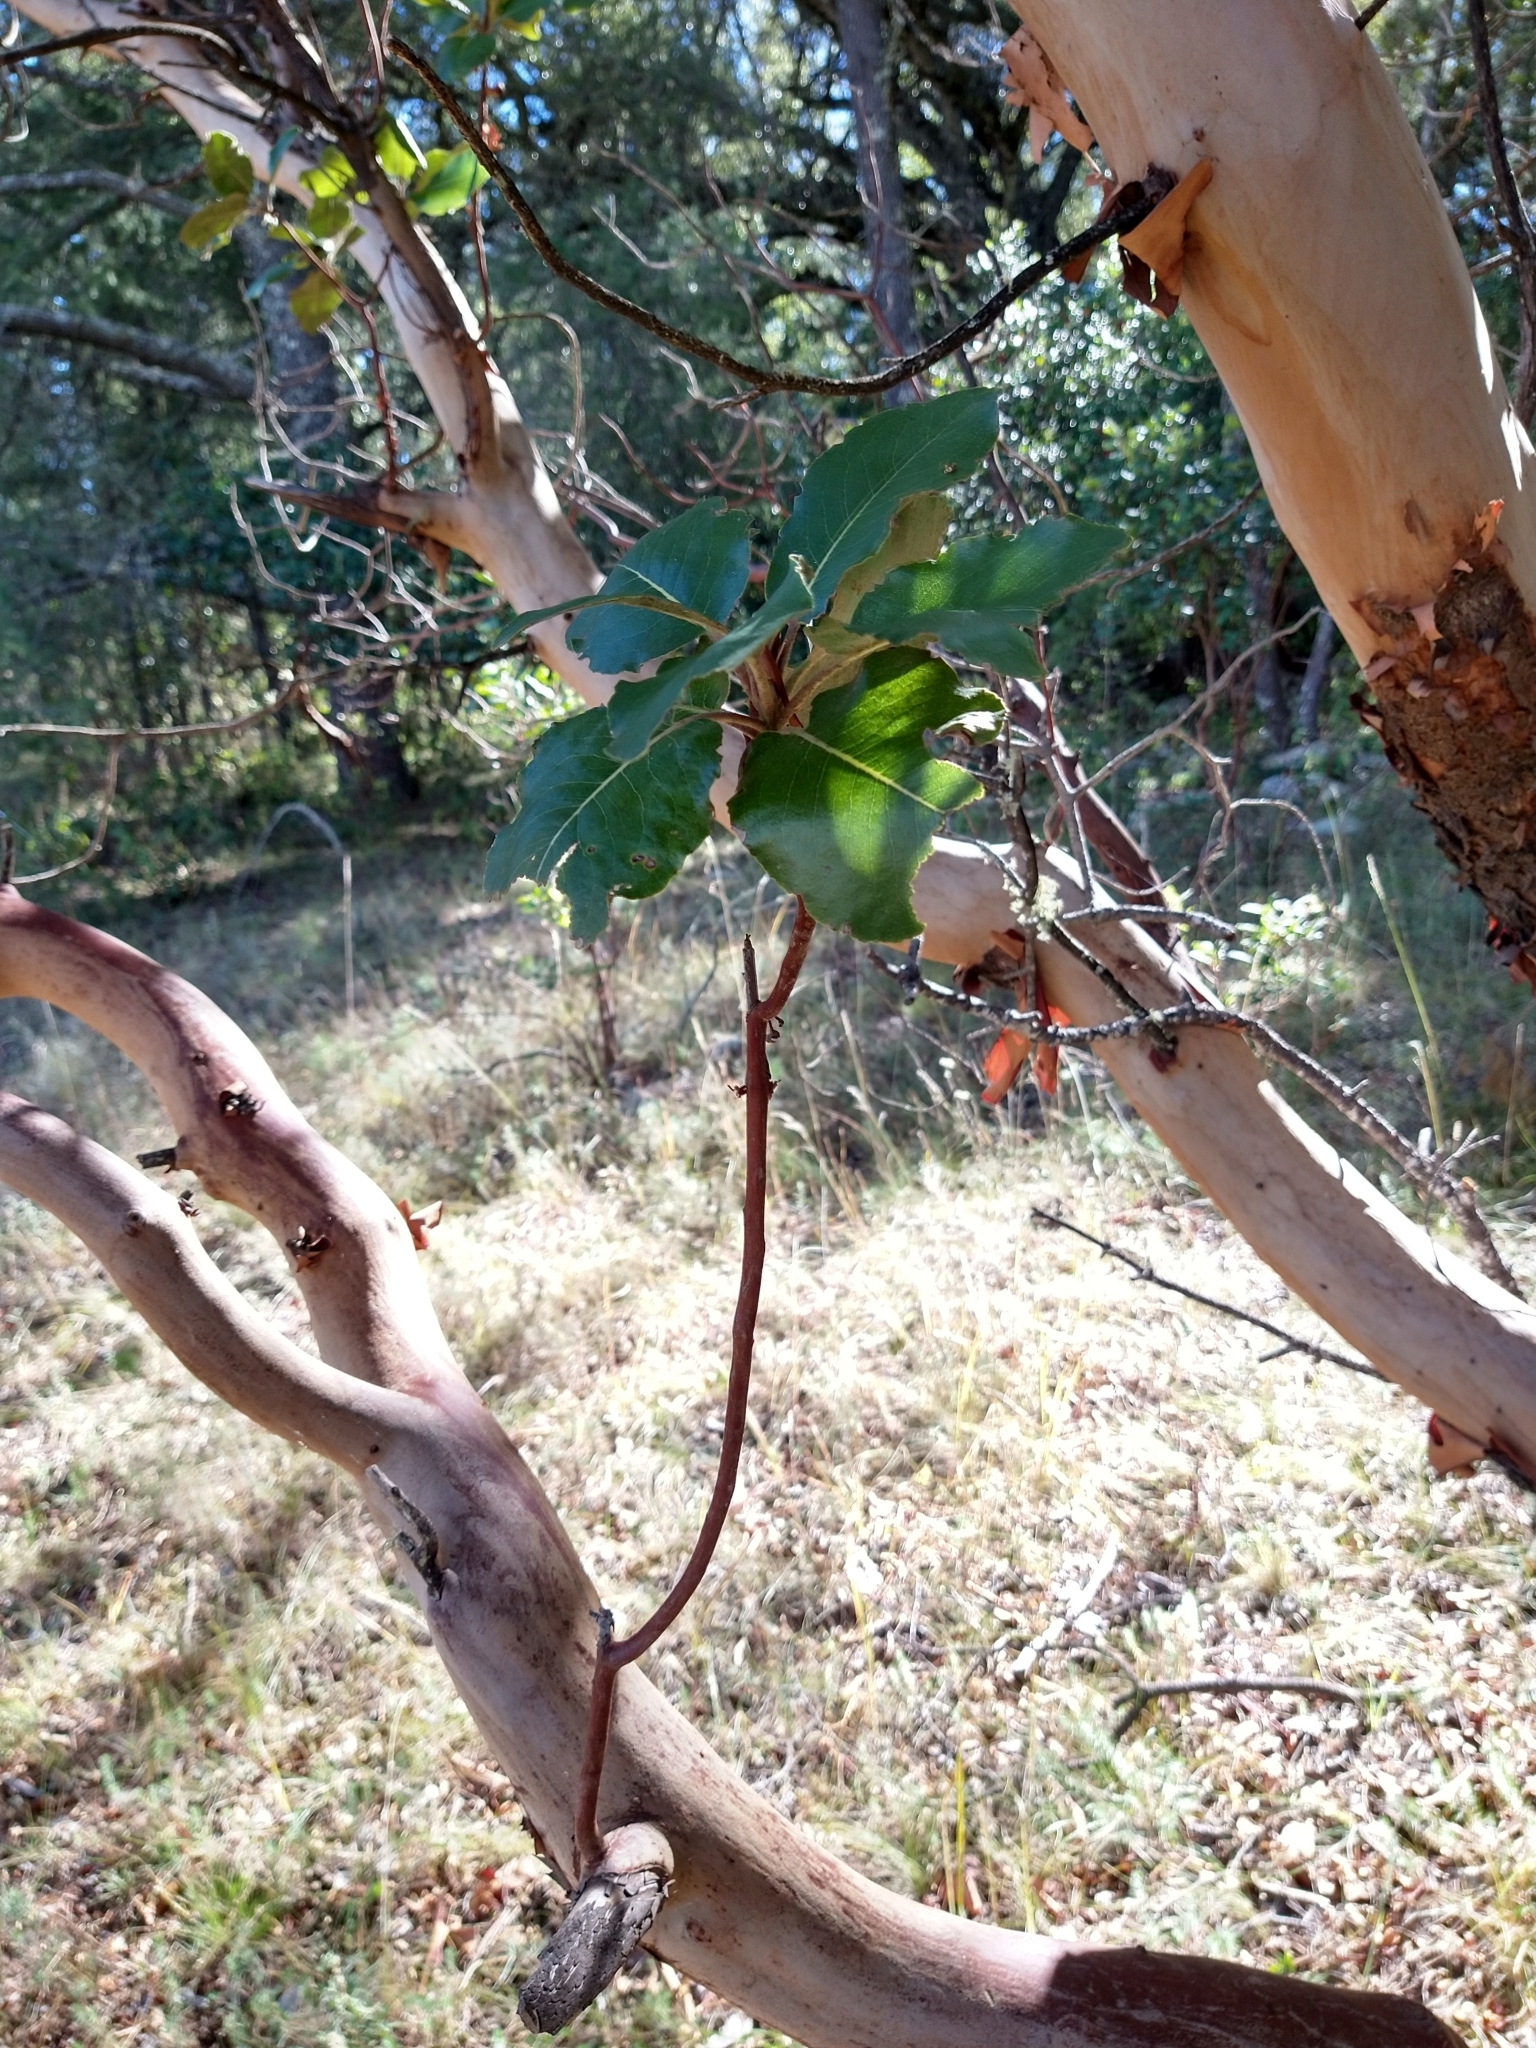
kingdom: Plantae
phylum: Tracheophyta
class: Magnoliopsida
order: Ericales
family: Ericaceae
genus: Arbutus
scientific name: Arbutus xalapensis
